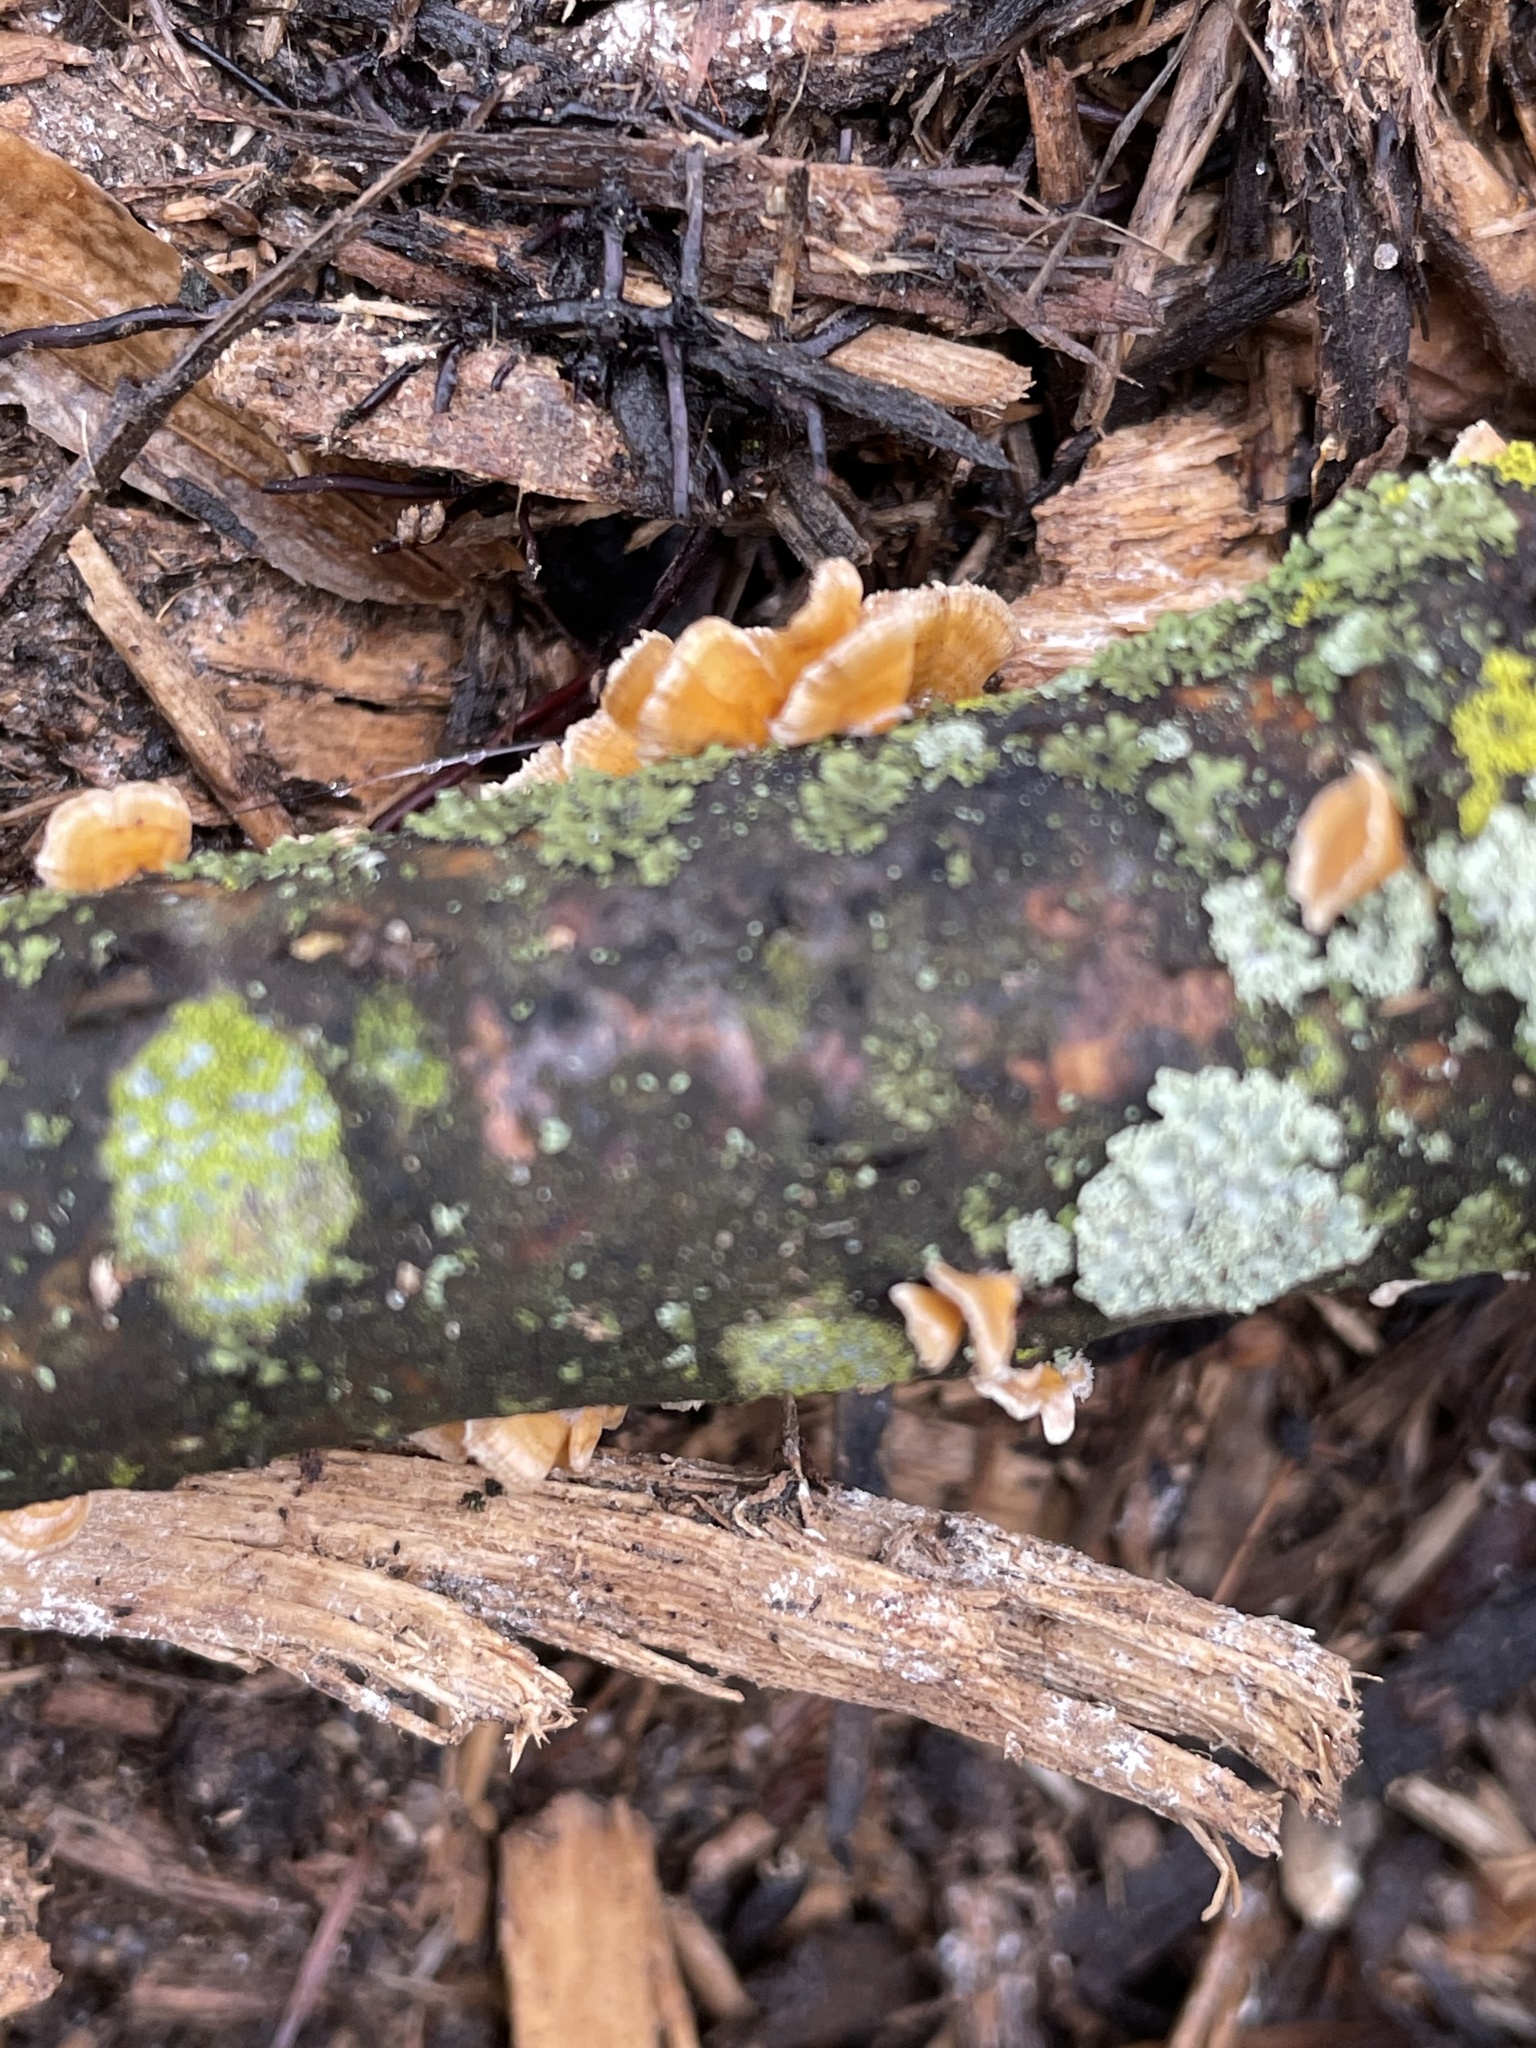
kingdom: Fungi
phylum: Basidiomycota
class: Agaricomycetes
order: Russulales
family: Stereaceae
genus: Stereum
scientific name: Stereum complicatum
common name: Crowded parchment
